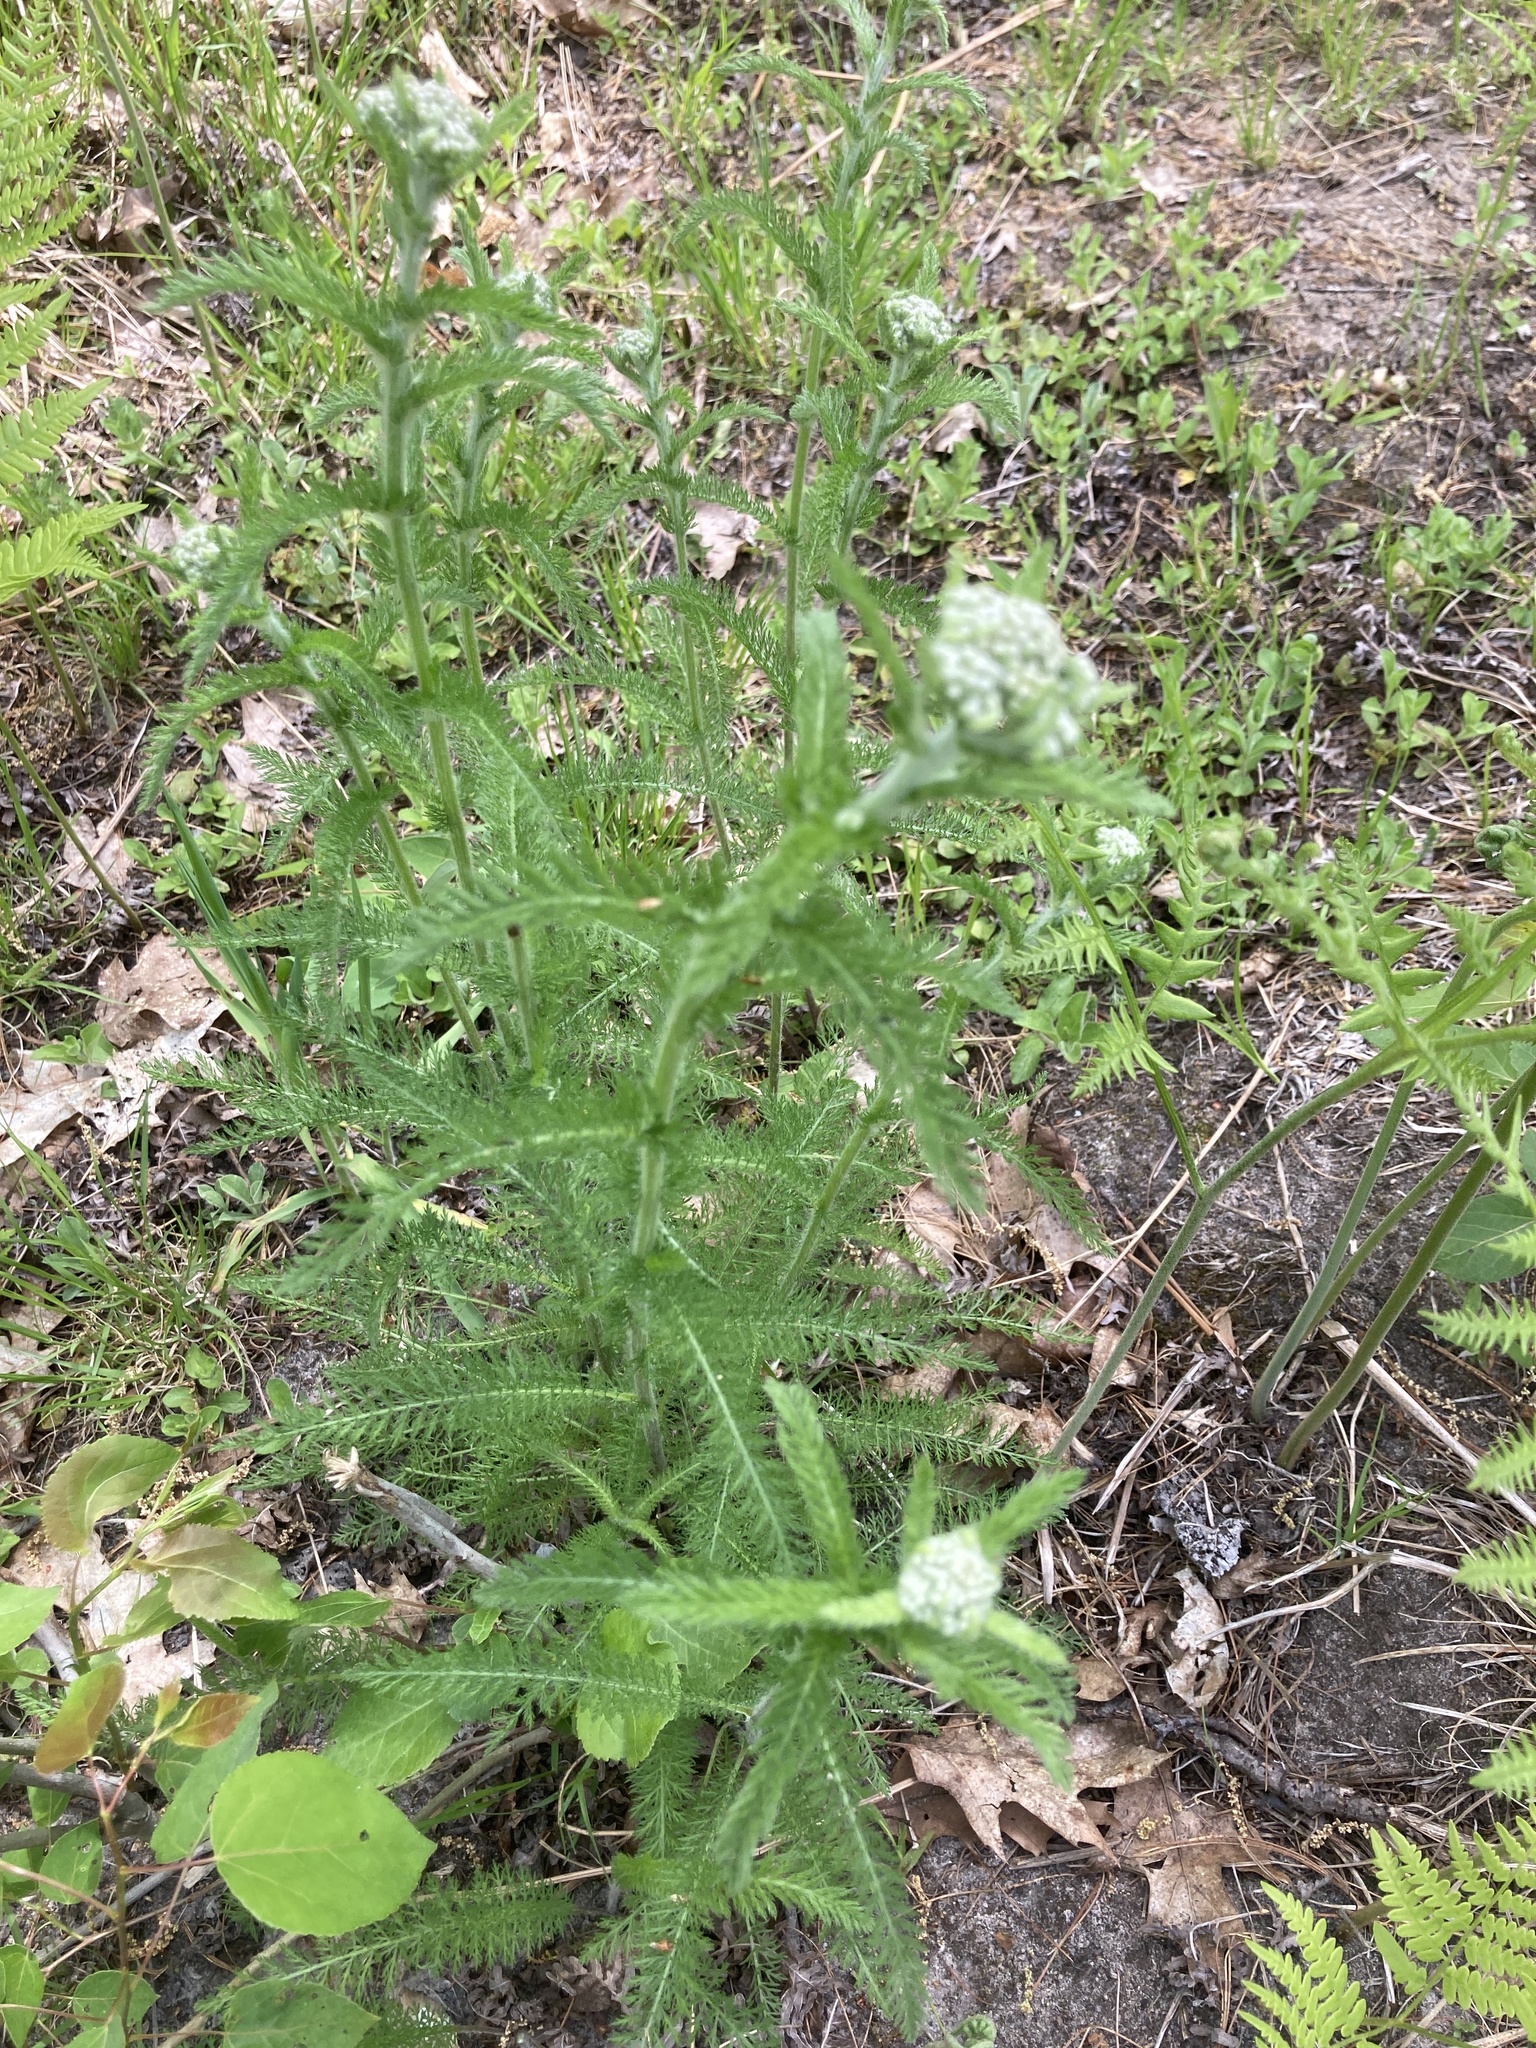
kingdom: Plantae
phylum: Tracheophyta
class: Magnoliopsida
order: Asterales
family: Asteraceae
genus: Achillea
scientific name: Achillea millefolium
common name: Yarrow
